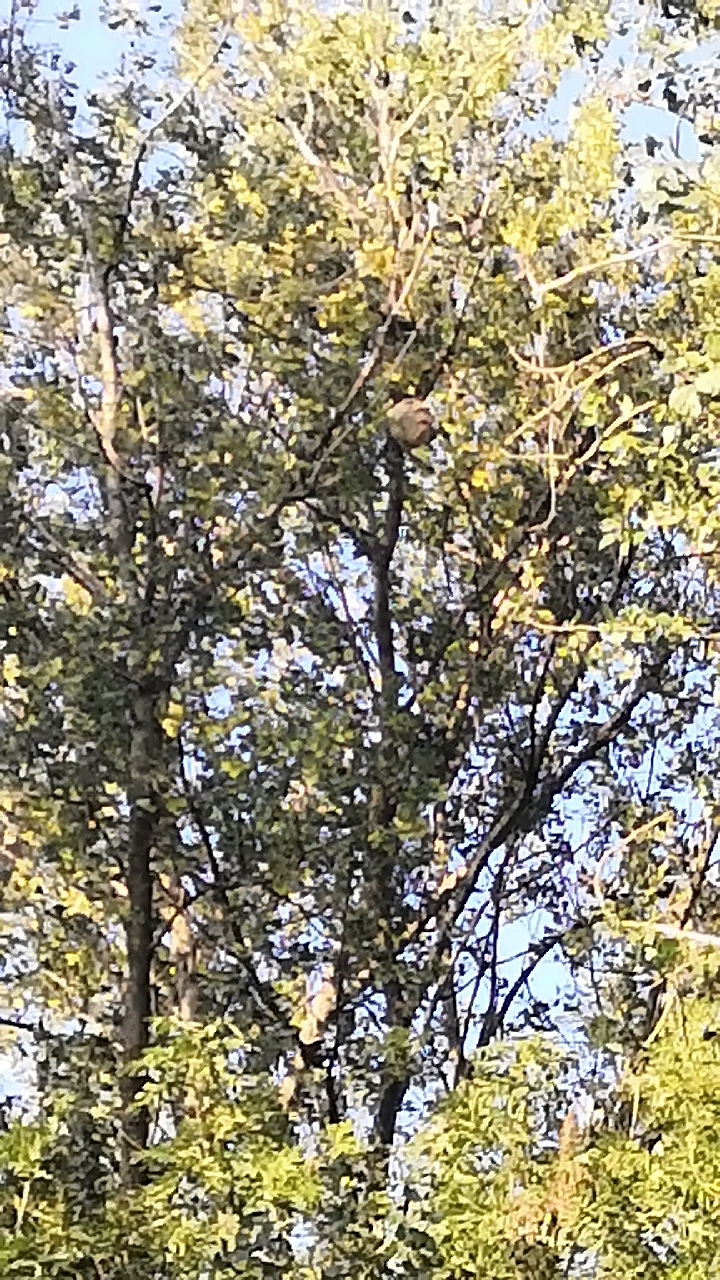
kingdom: Animalia
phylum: Arthropoda
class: Insecta
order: Hymenoptera
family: Vespidae
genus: Vespa
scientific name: Vespa velutina
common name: Asian hornet
